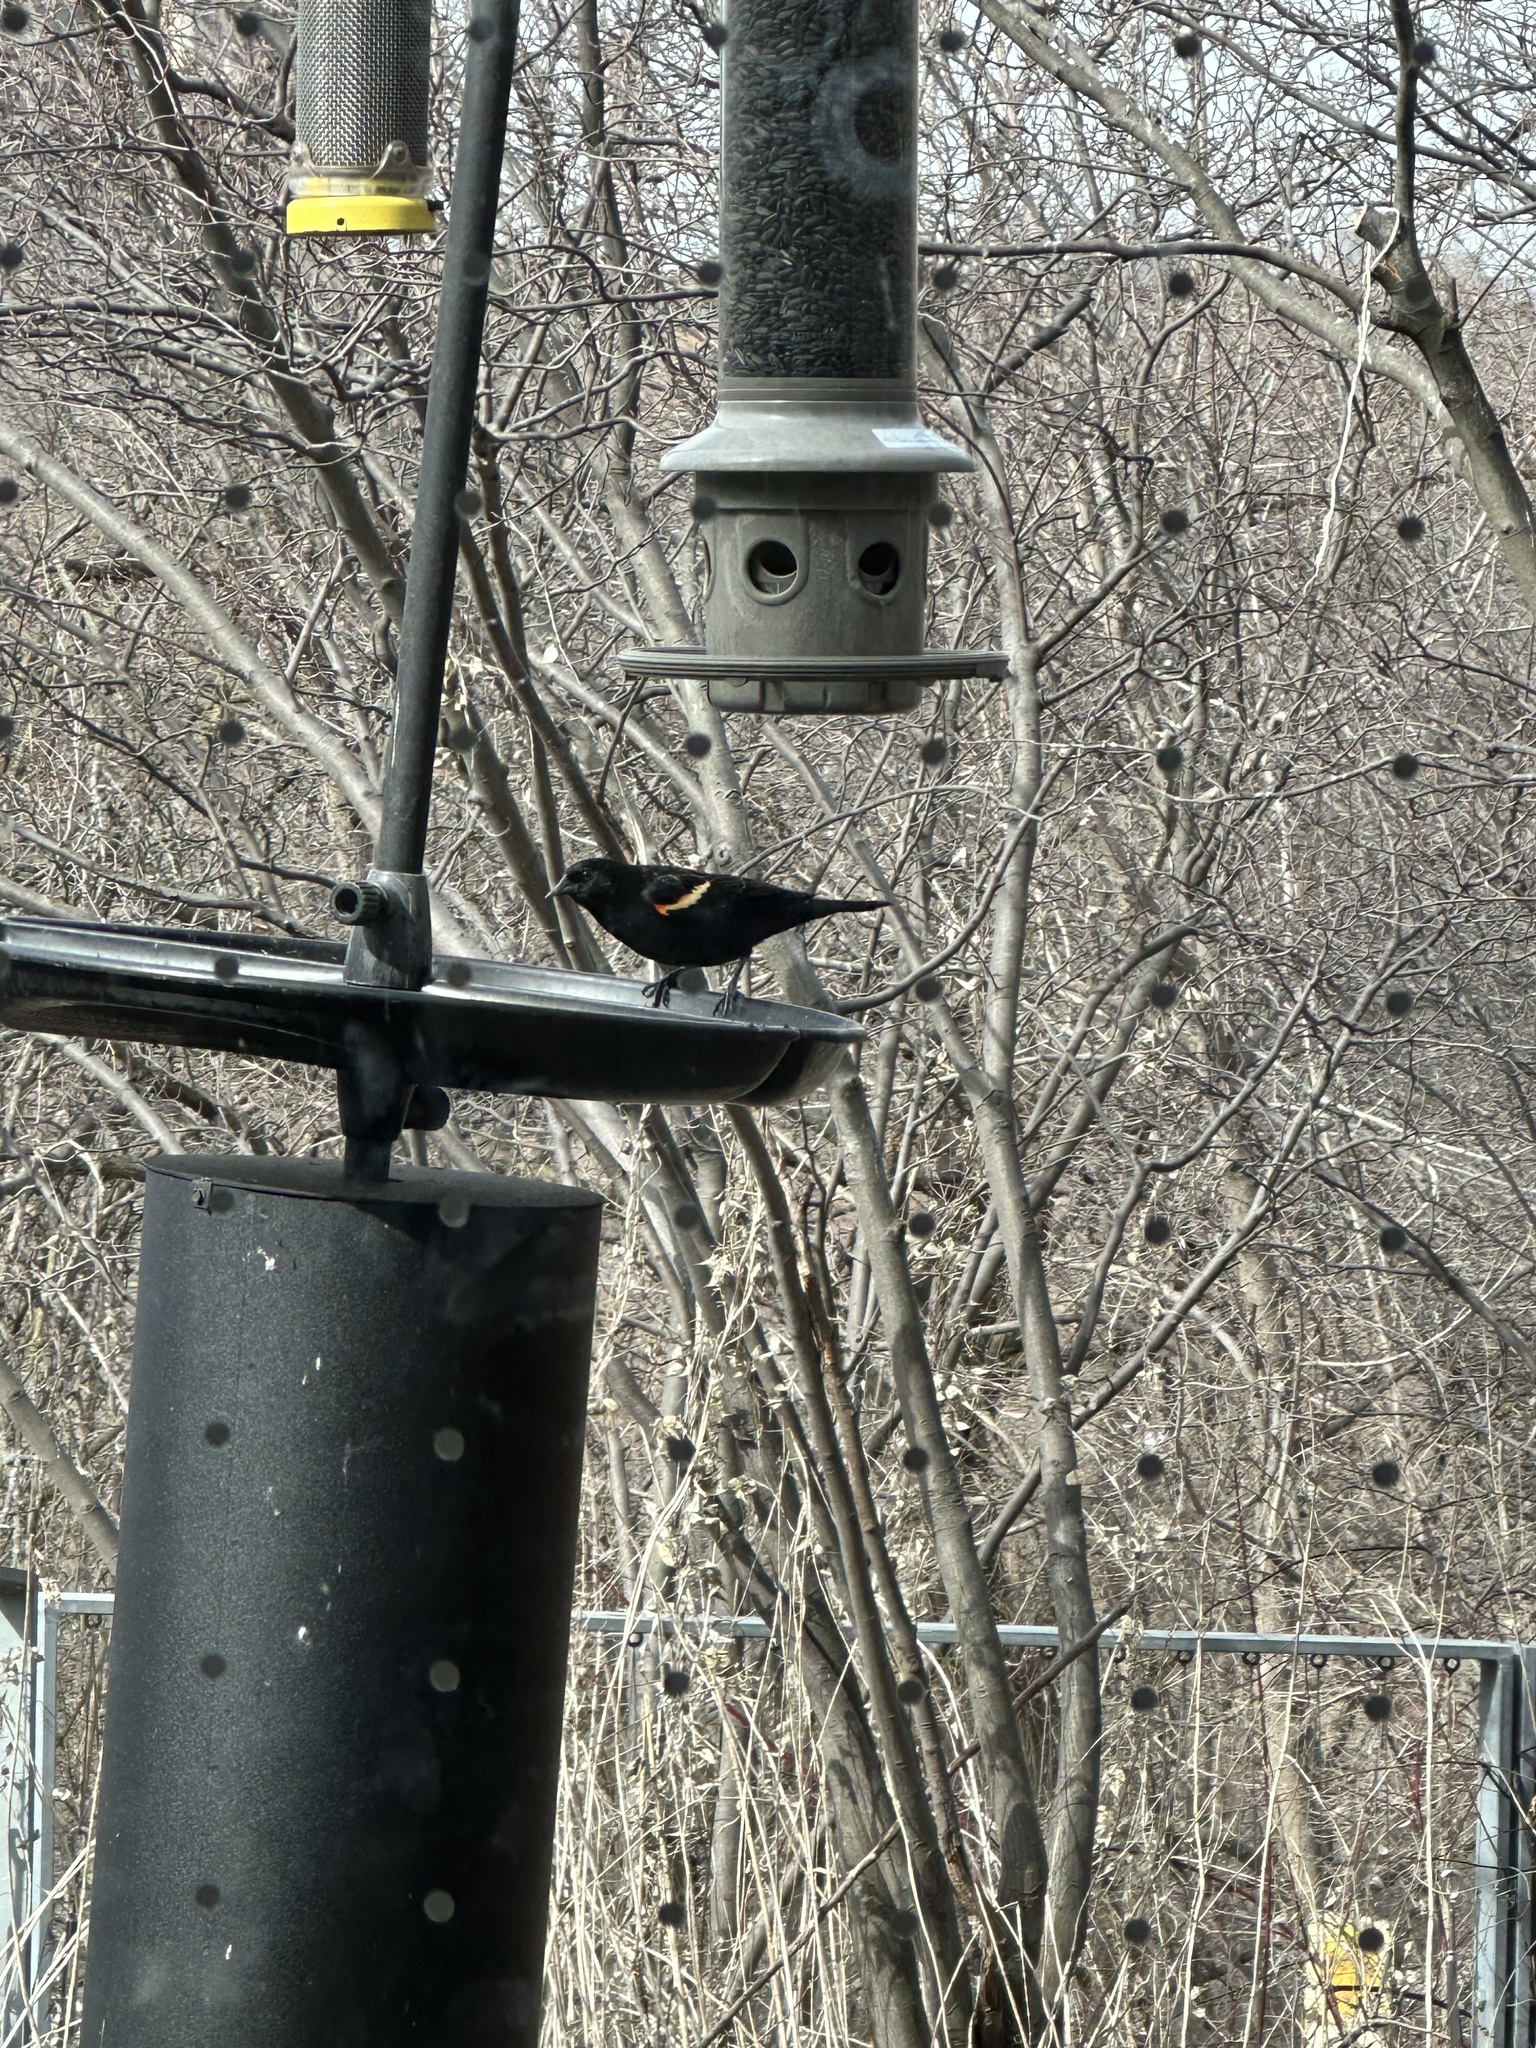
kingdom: Animalia
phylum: Chordata
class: Aves
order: Passeriformes
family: Icteridae
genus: Agelaius
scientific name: Agelaius phoeniceus
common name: Red-winged blackbird
